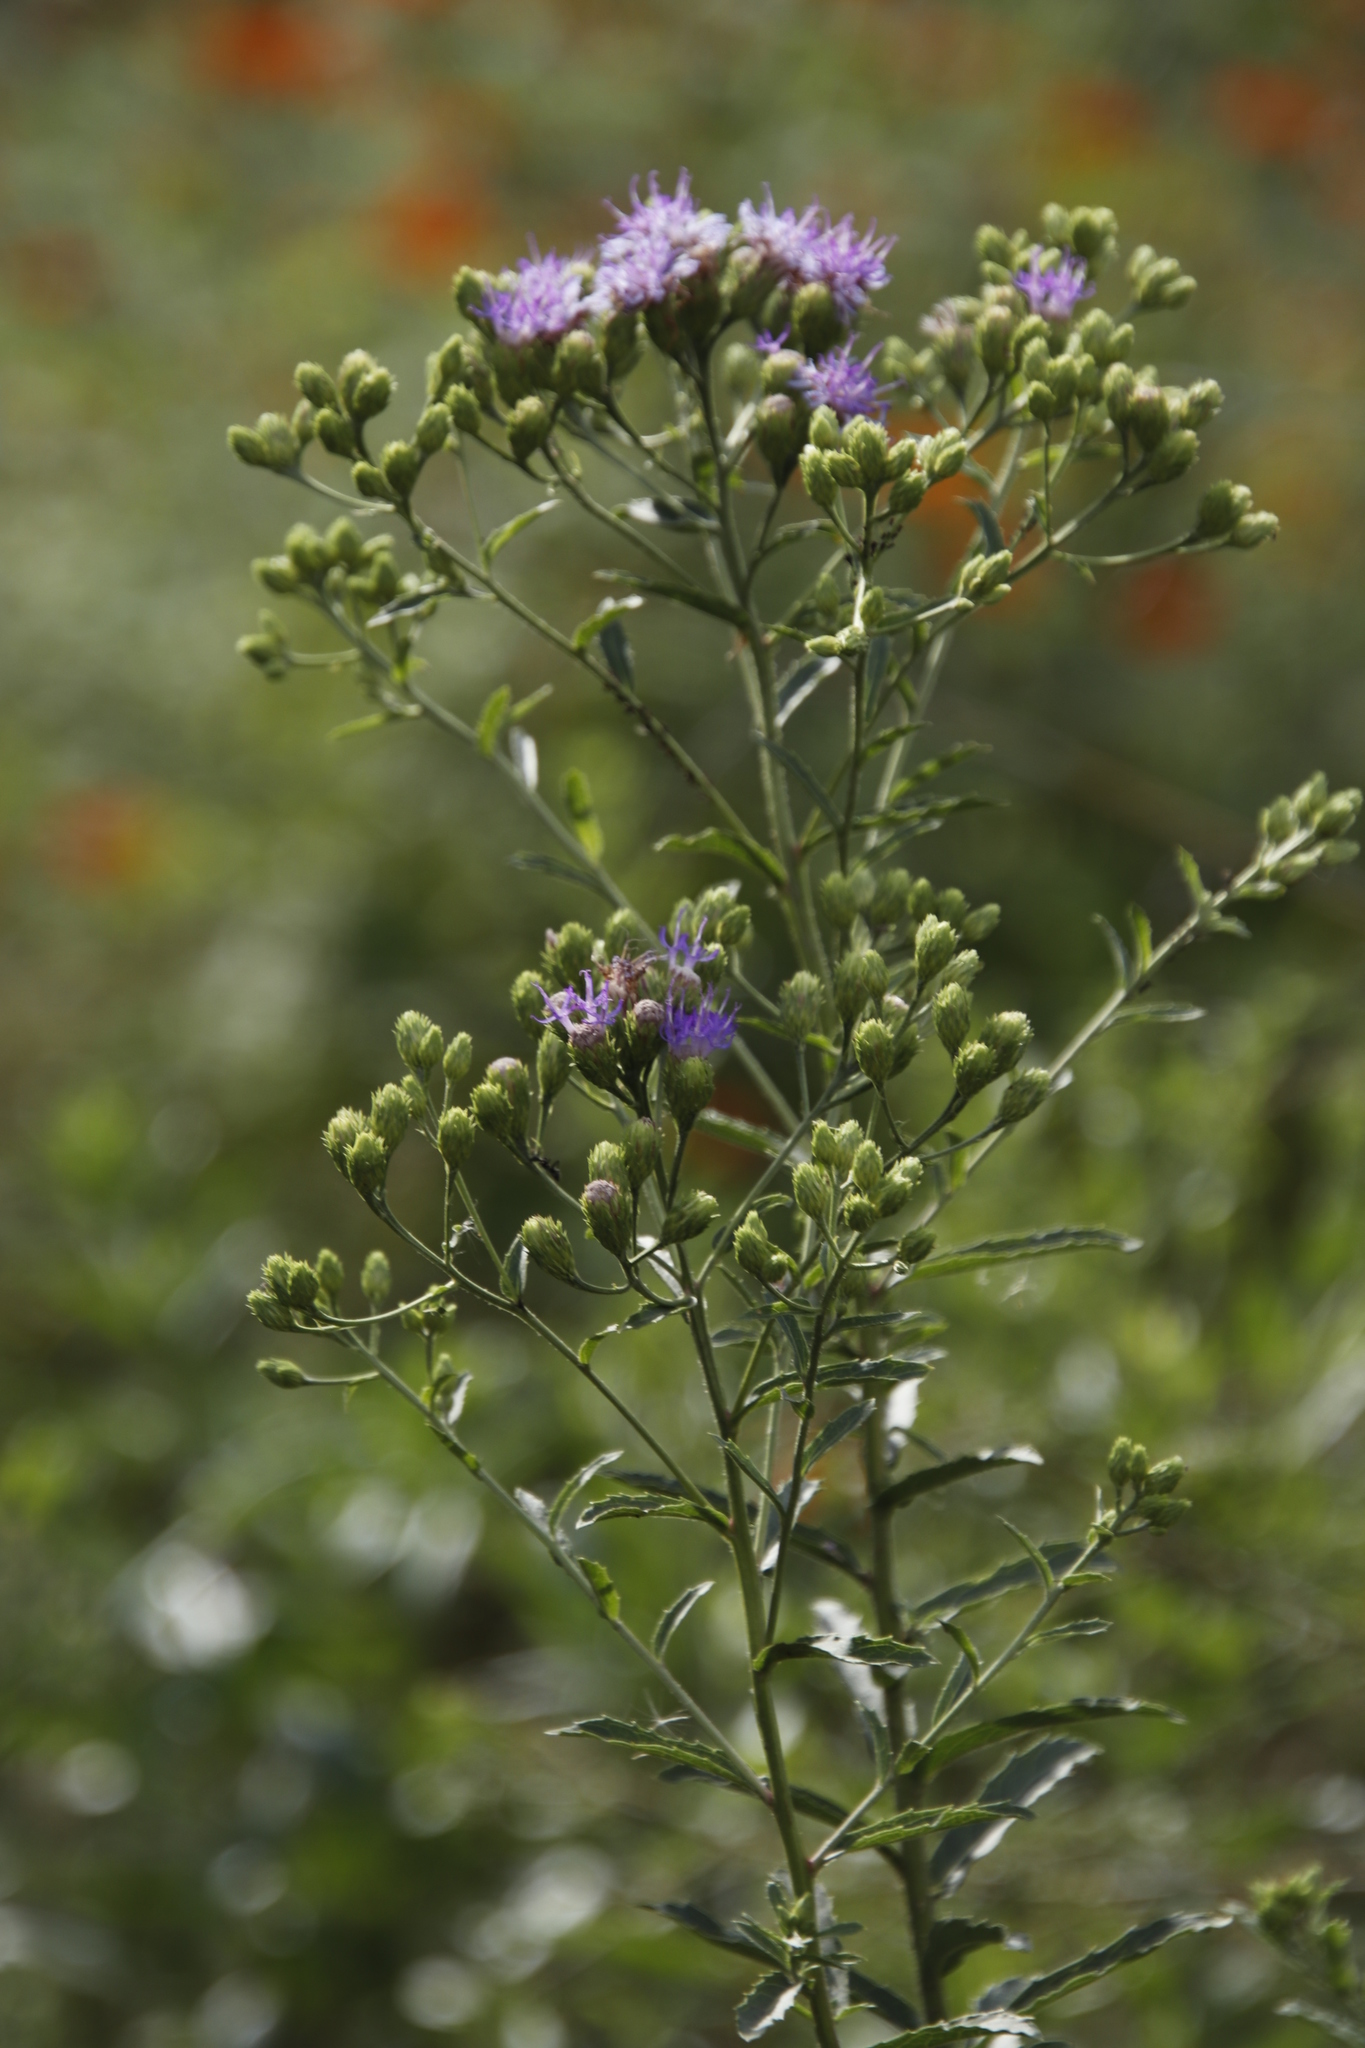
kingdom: Plantae
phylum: Tracheophyta
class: Magnoliopsida
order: Asterales
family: Asteraceae
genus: Linzia
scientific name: Linzia glabra
